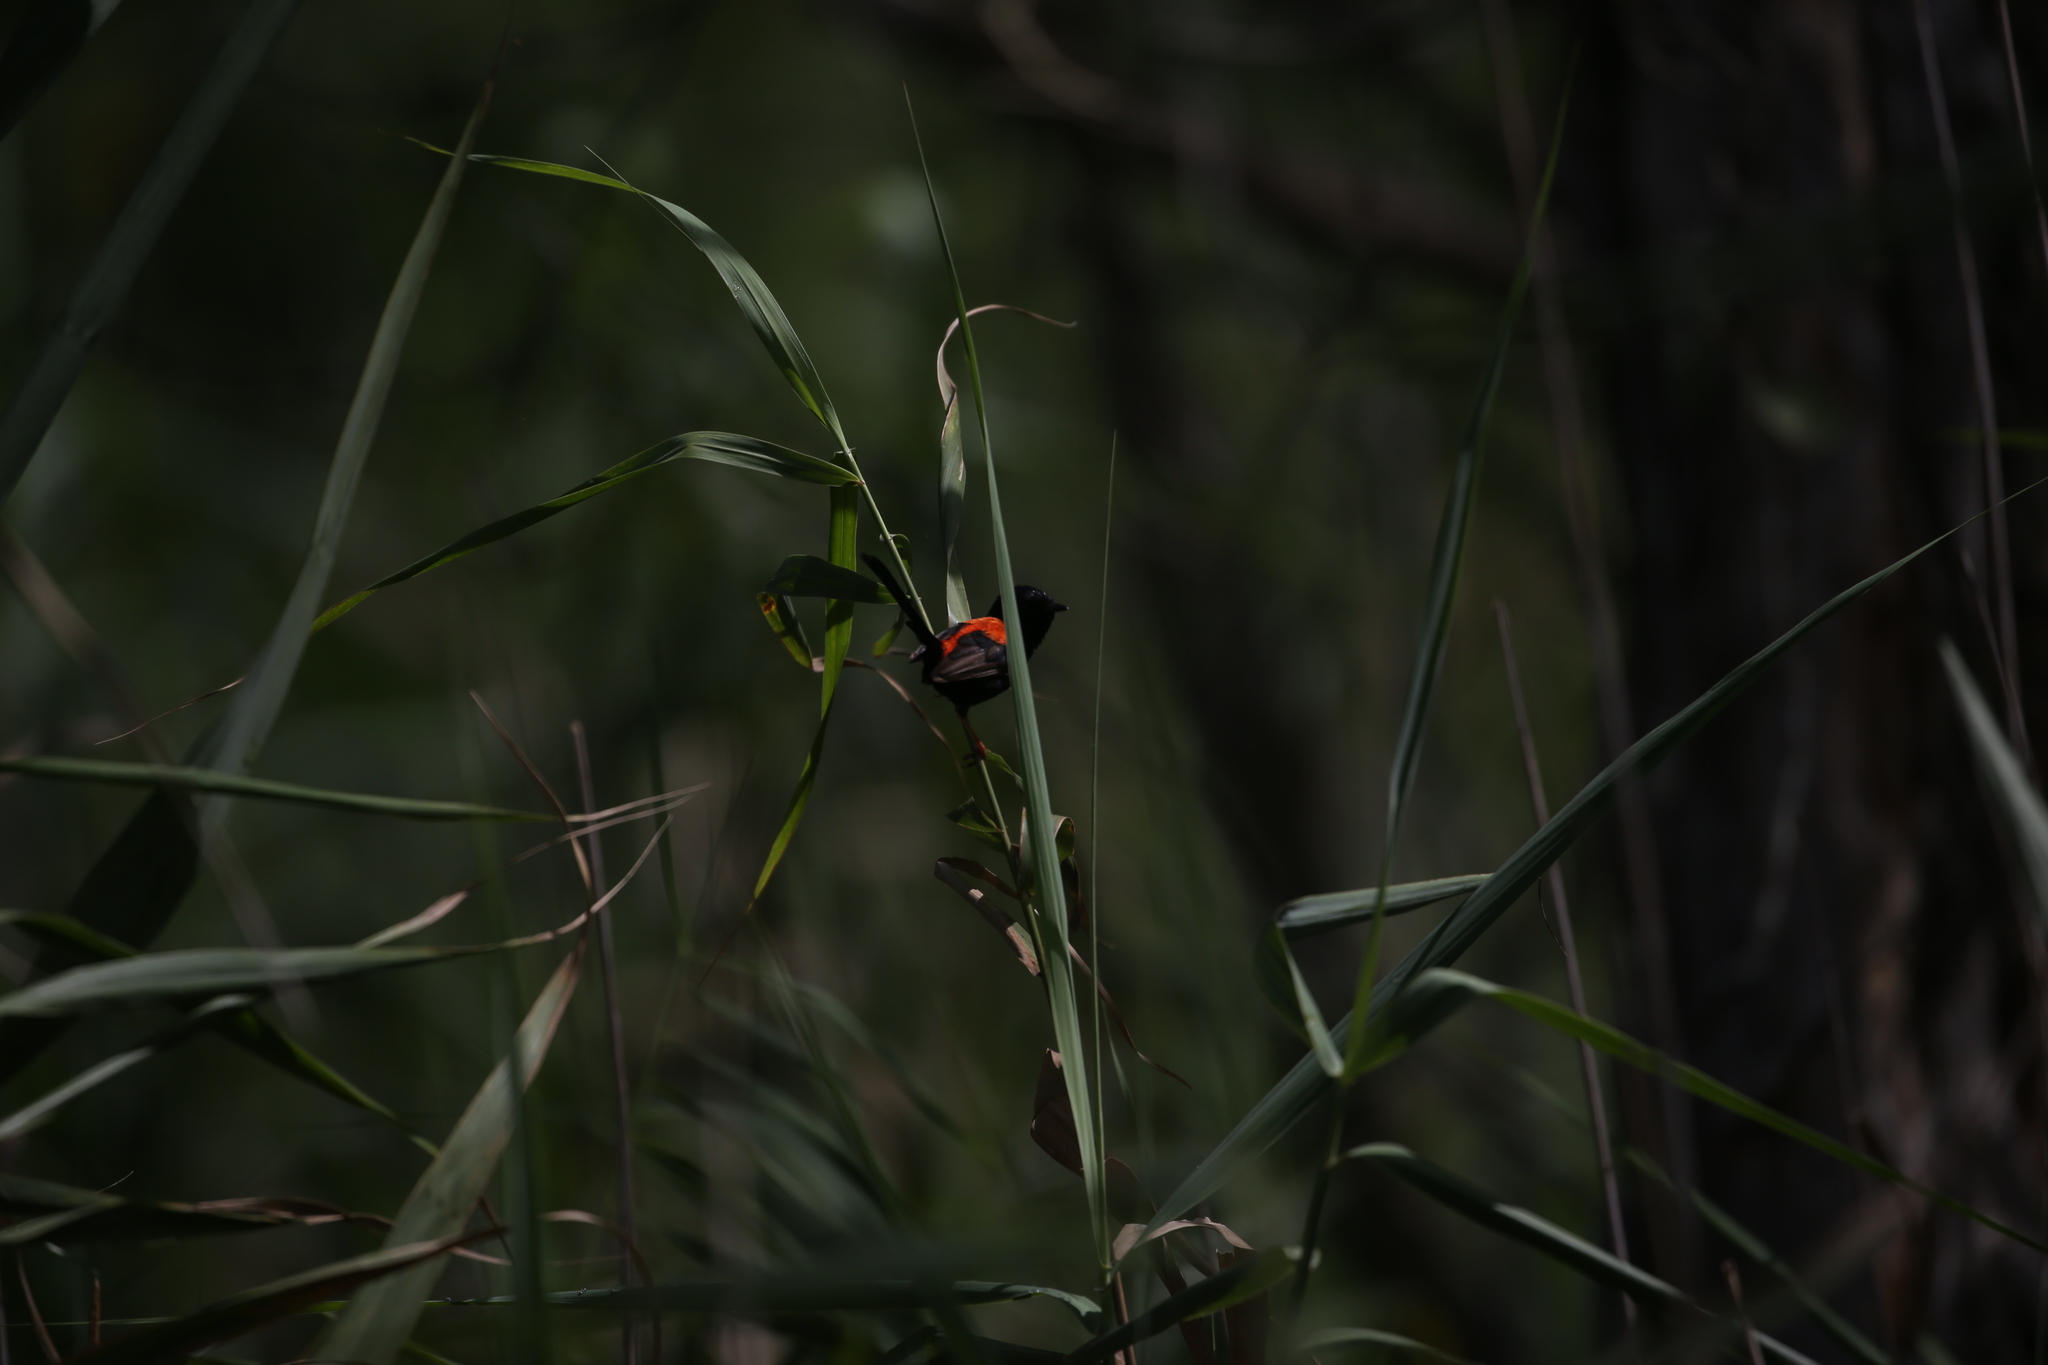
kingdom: Animalia
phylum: Chordata
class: Aves
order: Passeriformes
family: Maluridae
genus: Malurus
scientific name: Malurus melanocephalus
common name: Red-backed fairywren
